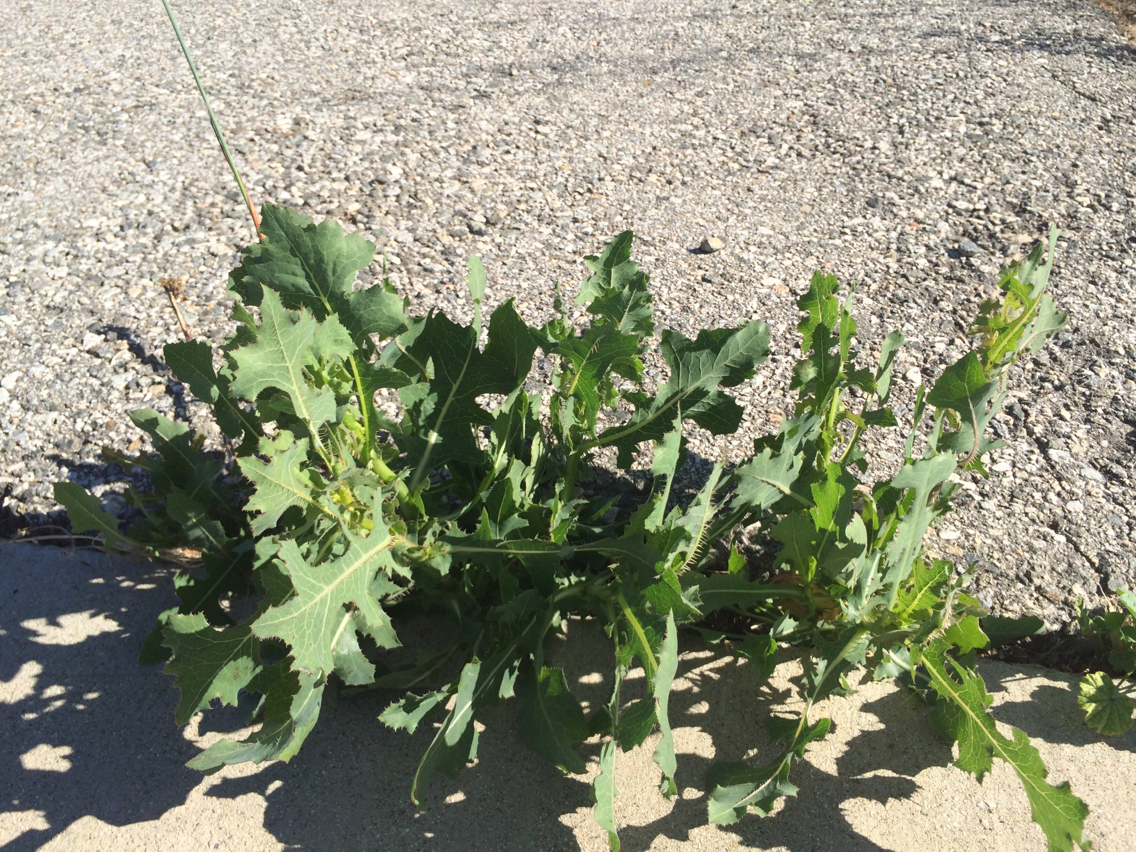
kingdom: Plantae
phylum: Tracheophyta
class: Magnoliopsida
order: Asterales
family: Asteraceae
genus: Lactuca
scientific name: Lactuca serriola
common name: Prickly lettuce
